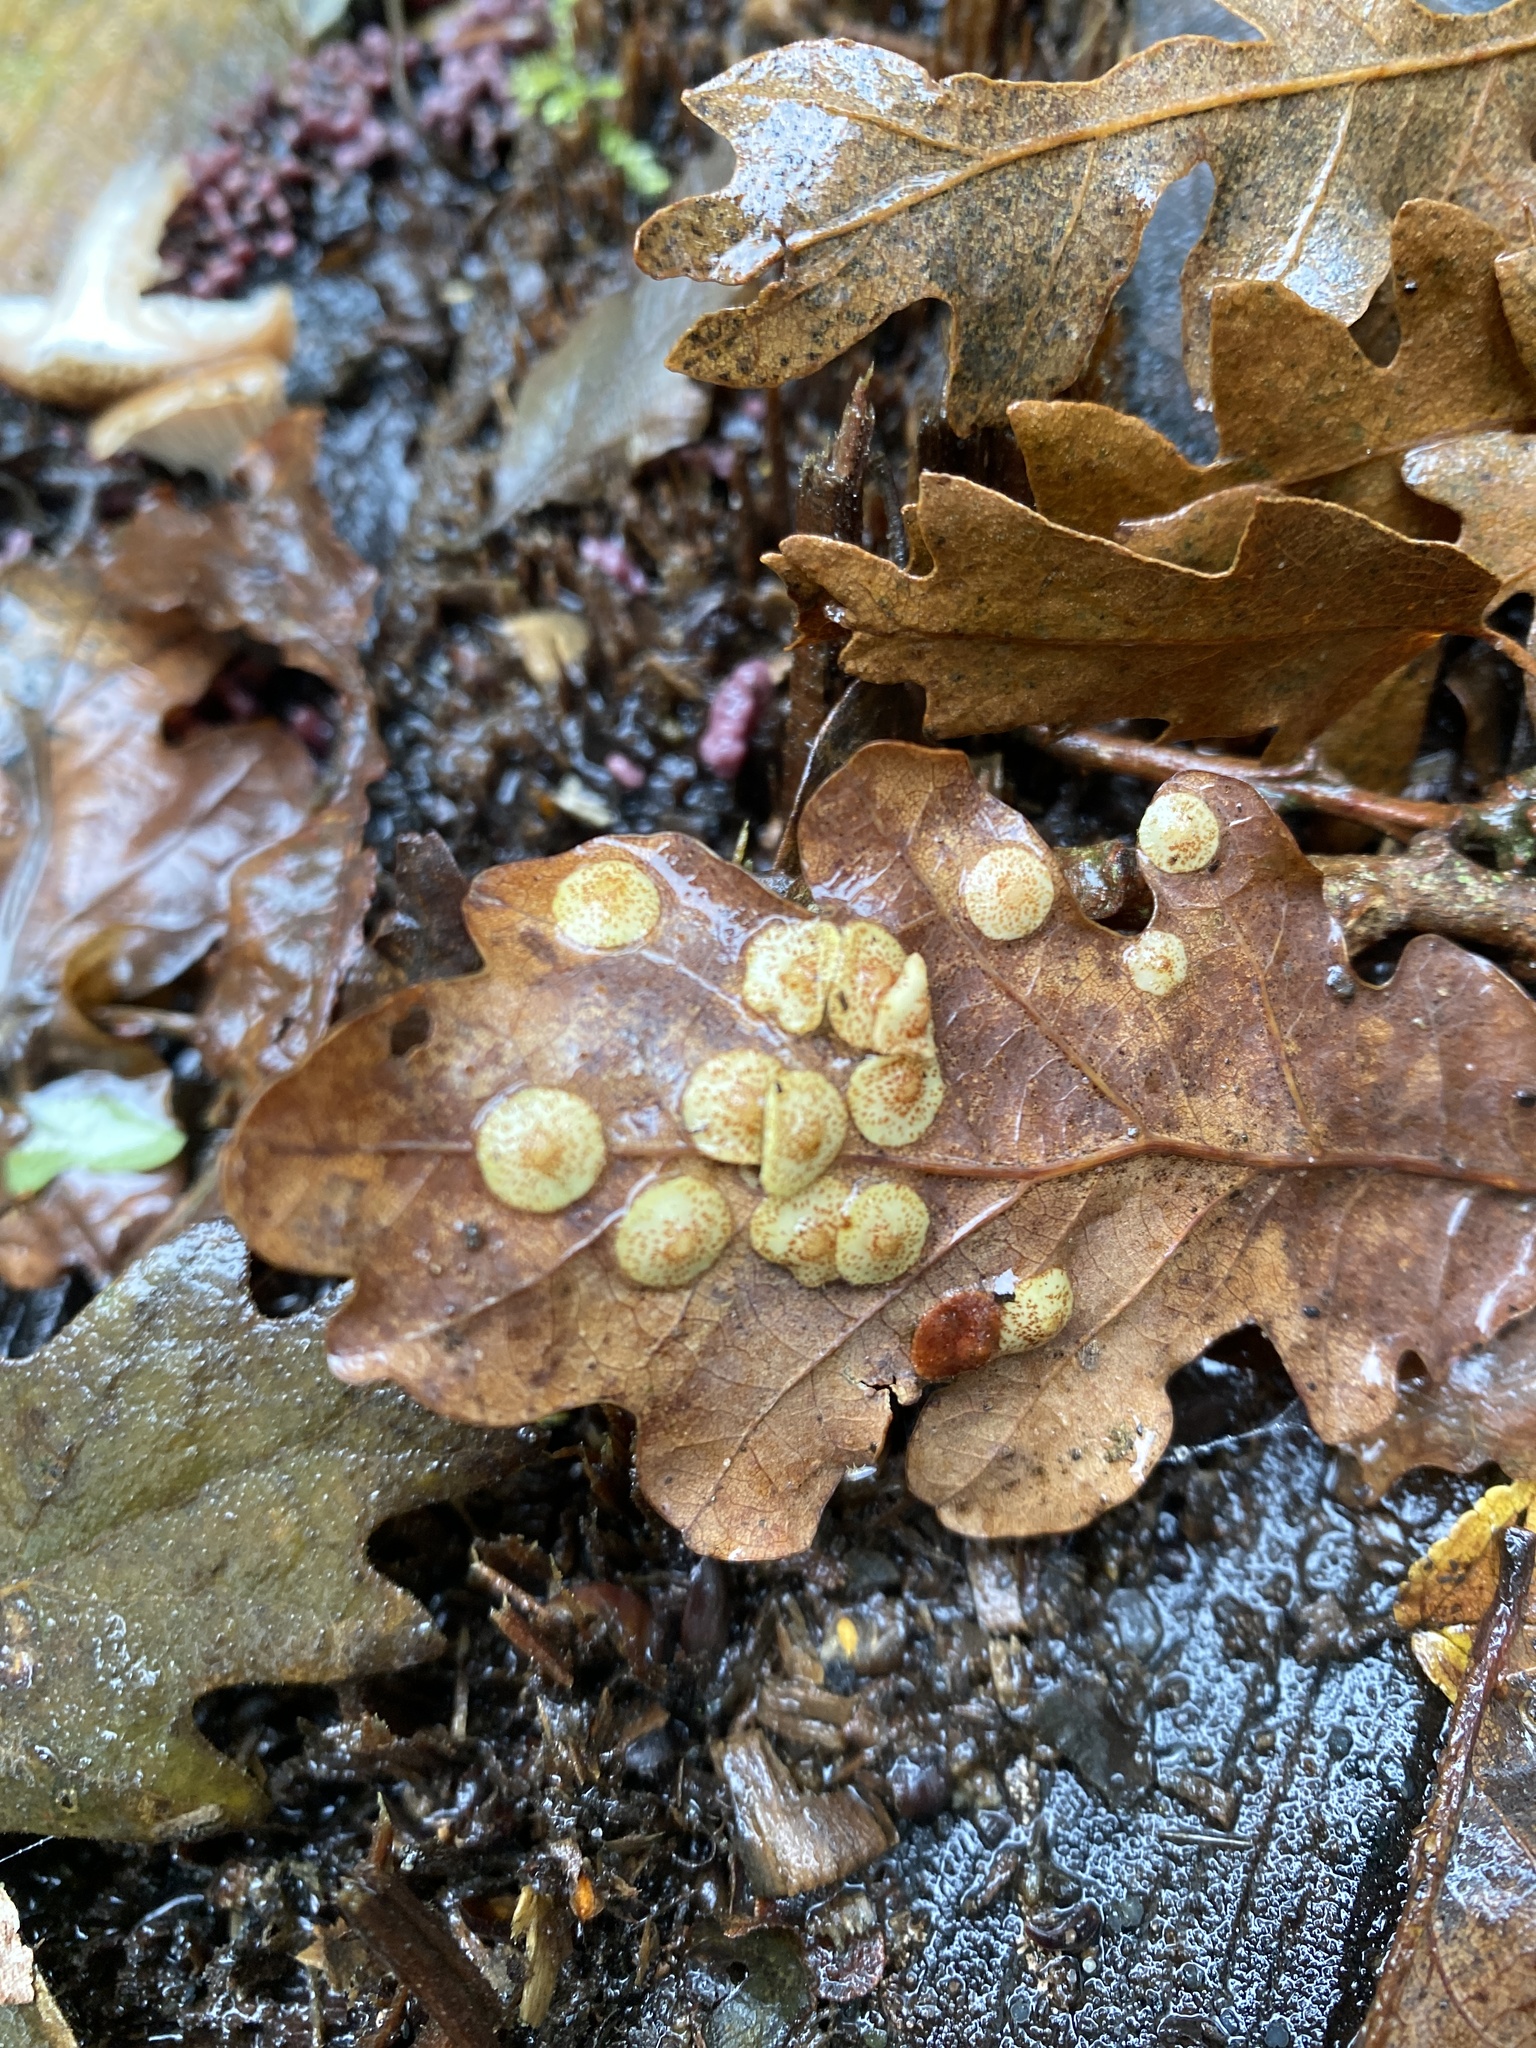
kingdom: Animalia
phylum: Arthropoda
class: Insecta
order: Hymenoptera
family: Cynipidae
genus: Neuroterus
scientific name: Neuroterus quercusbaccarum
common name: Common spangle gall
